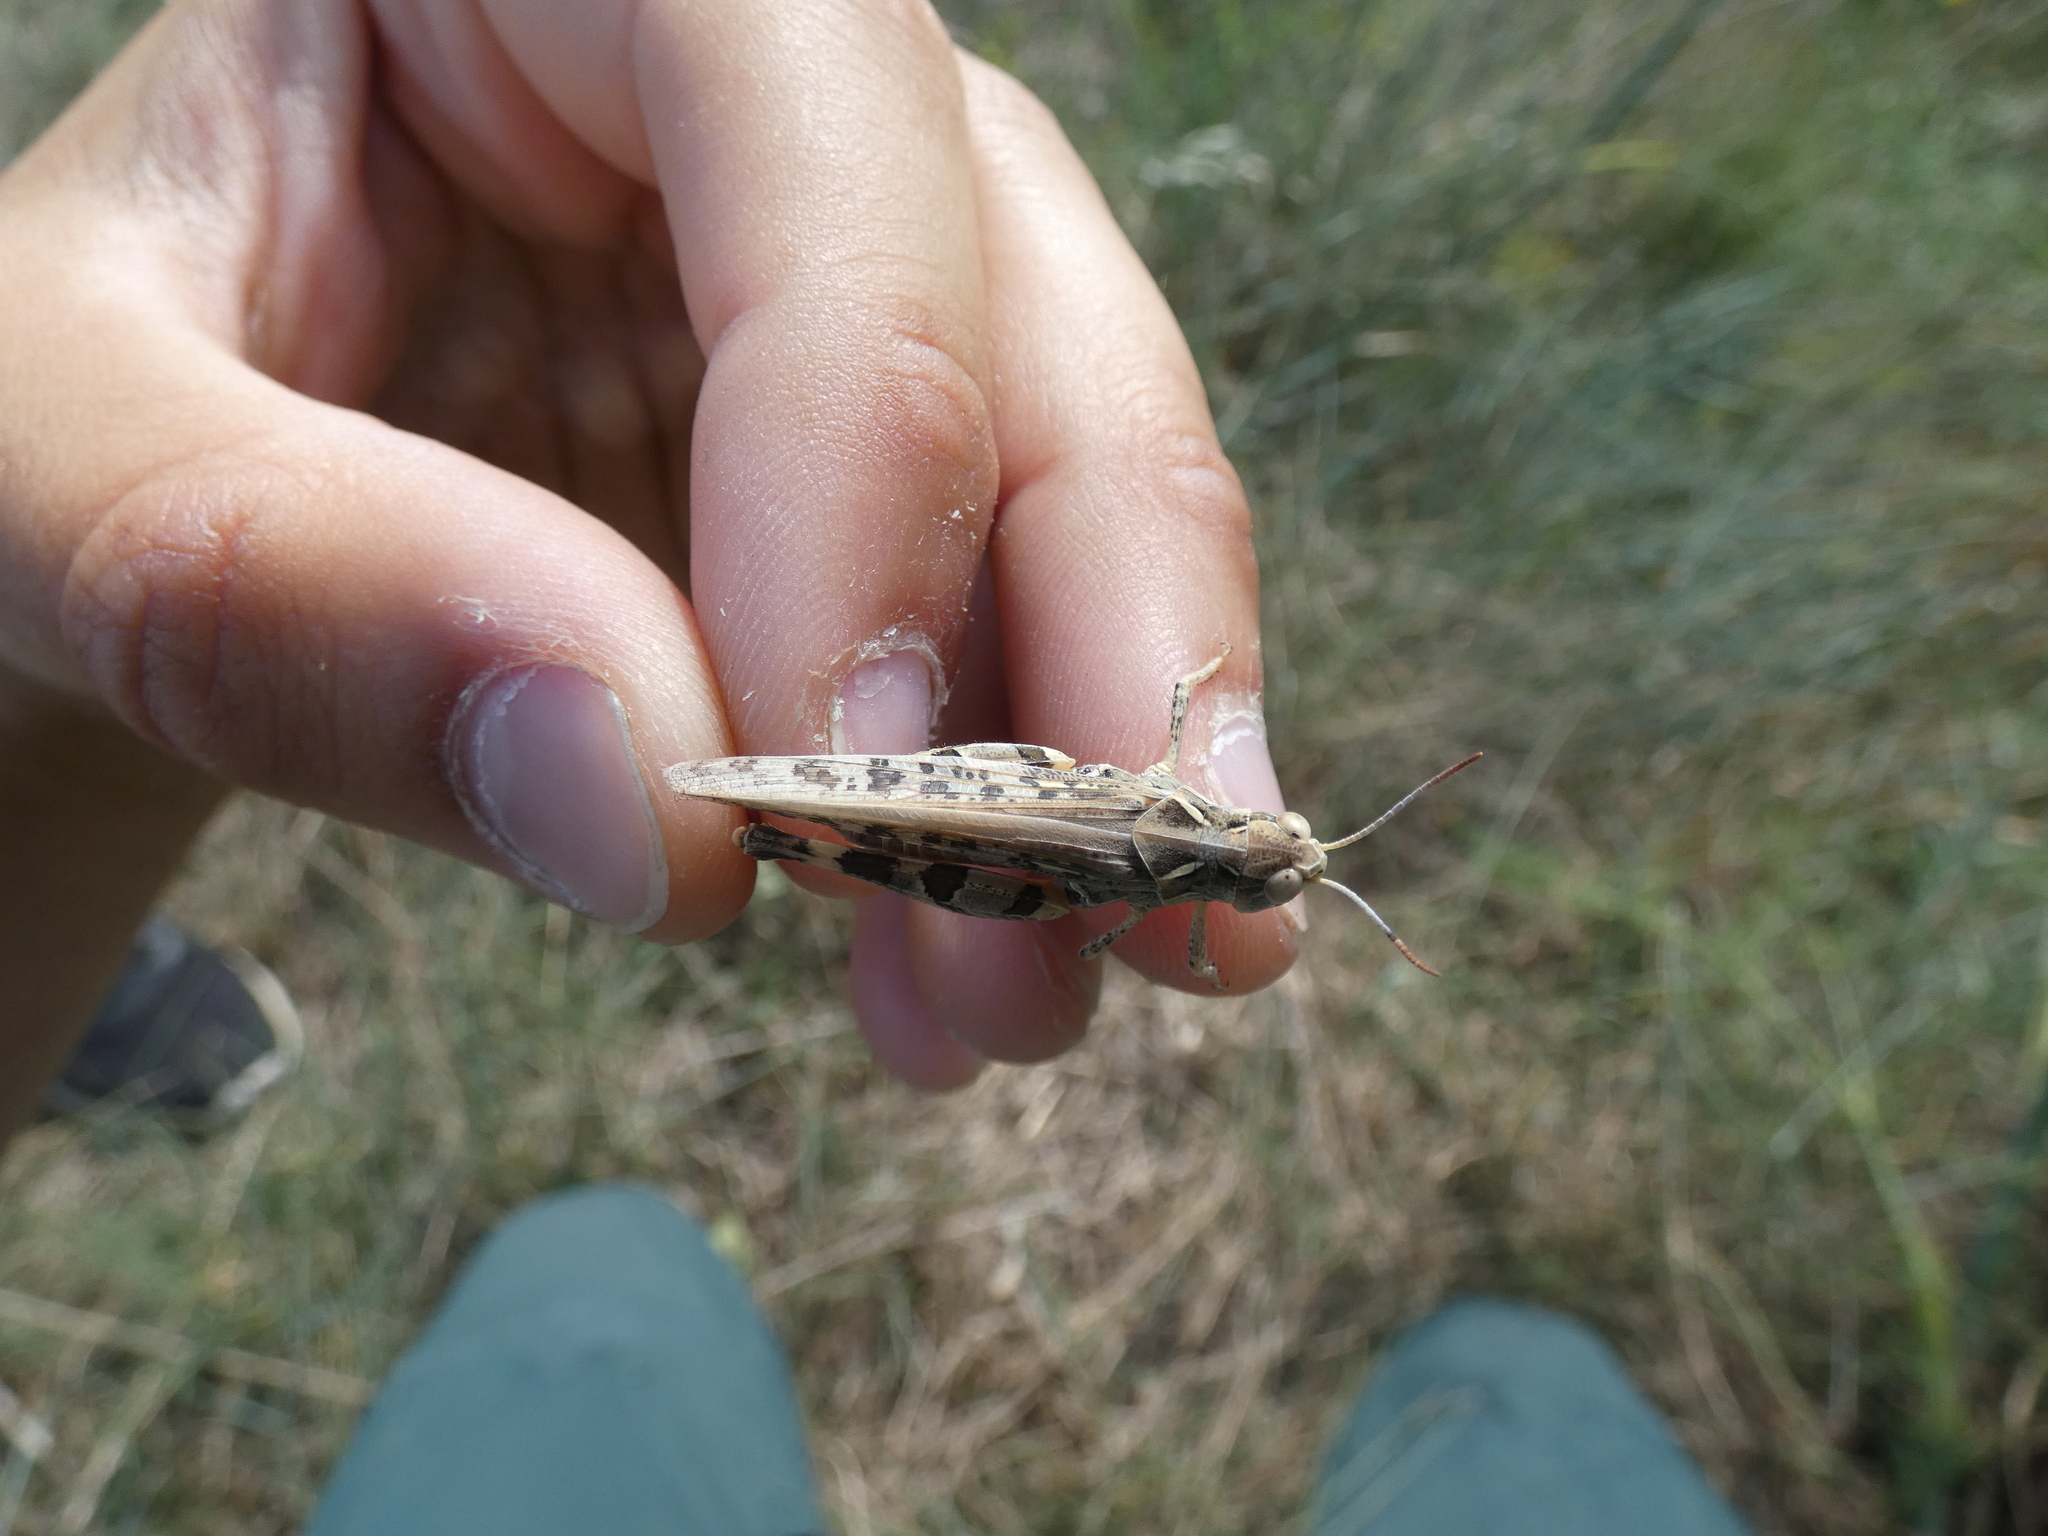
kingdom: Animalia
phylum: Arthropoda
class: Insecta
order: Orthoptera
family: Acrididae
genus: Dociostaurus
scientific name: Dociostaurus maroccanus
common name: Moroccan locust
